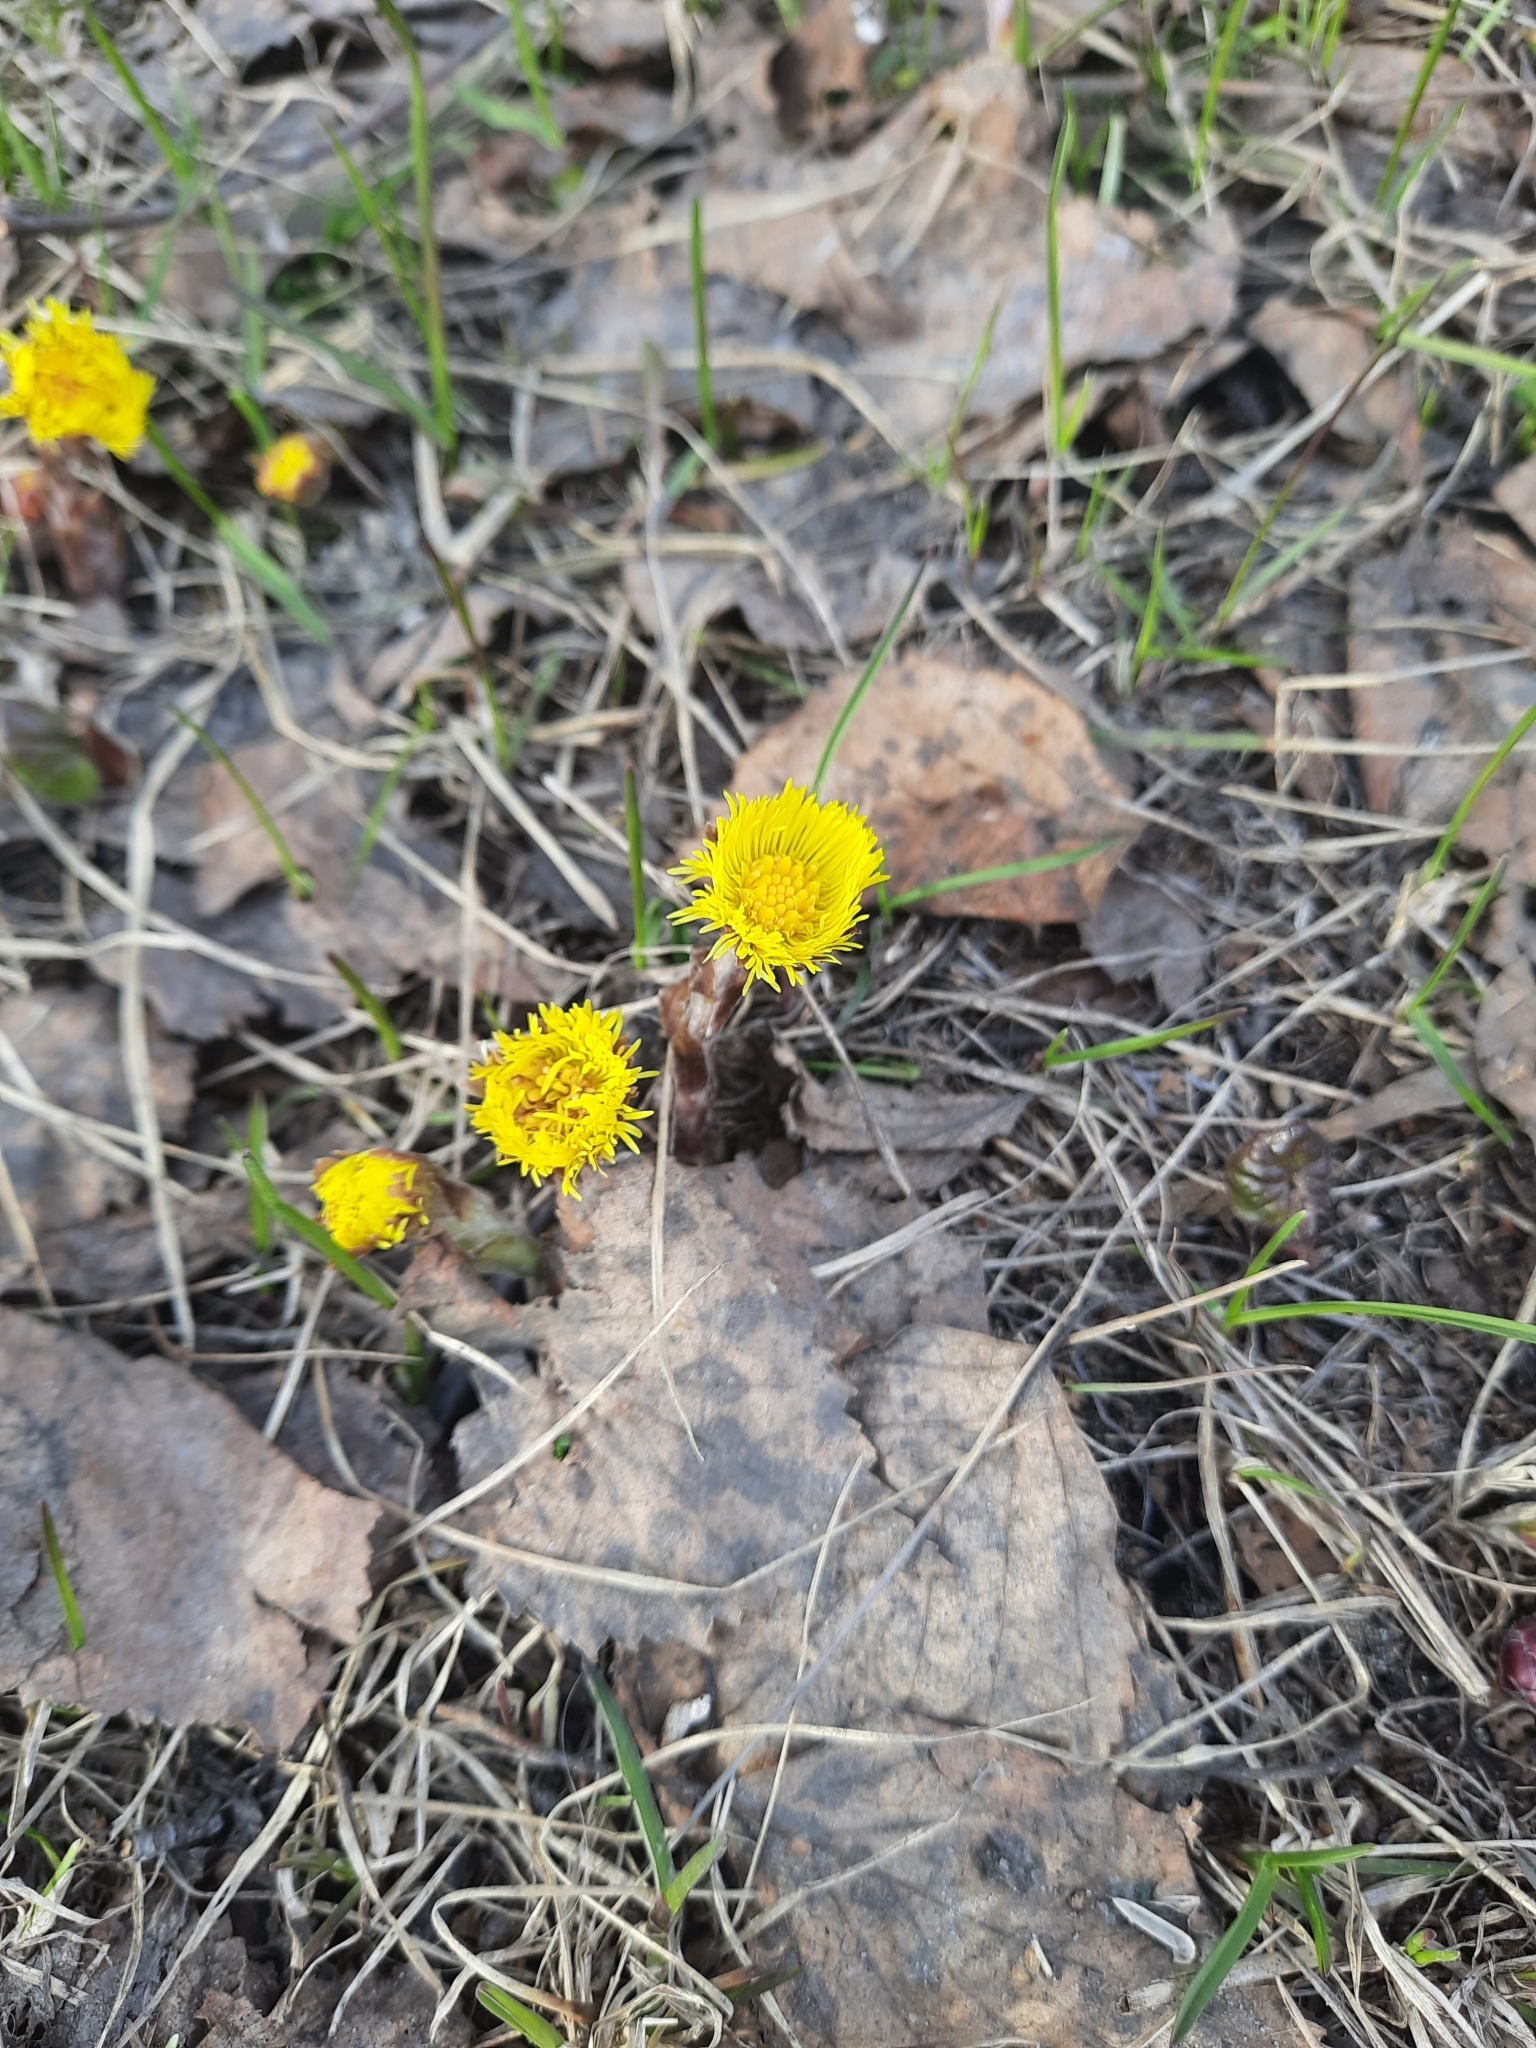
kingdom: Plantae
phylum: Tracheophyta
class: Magnoliopsida
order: Asterales
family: Asteraceae
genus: Tussilago
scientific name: Tussilago farfara
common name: Coltsfoot
